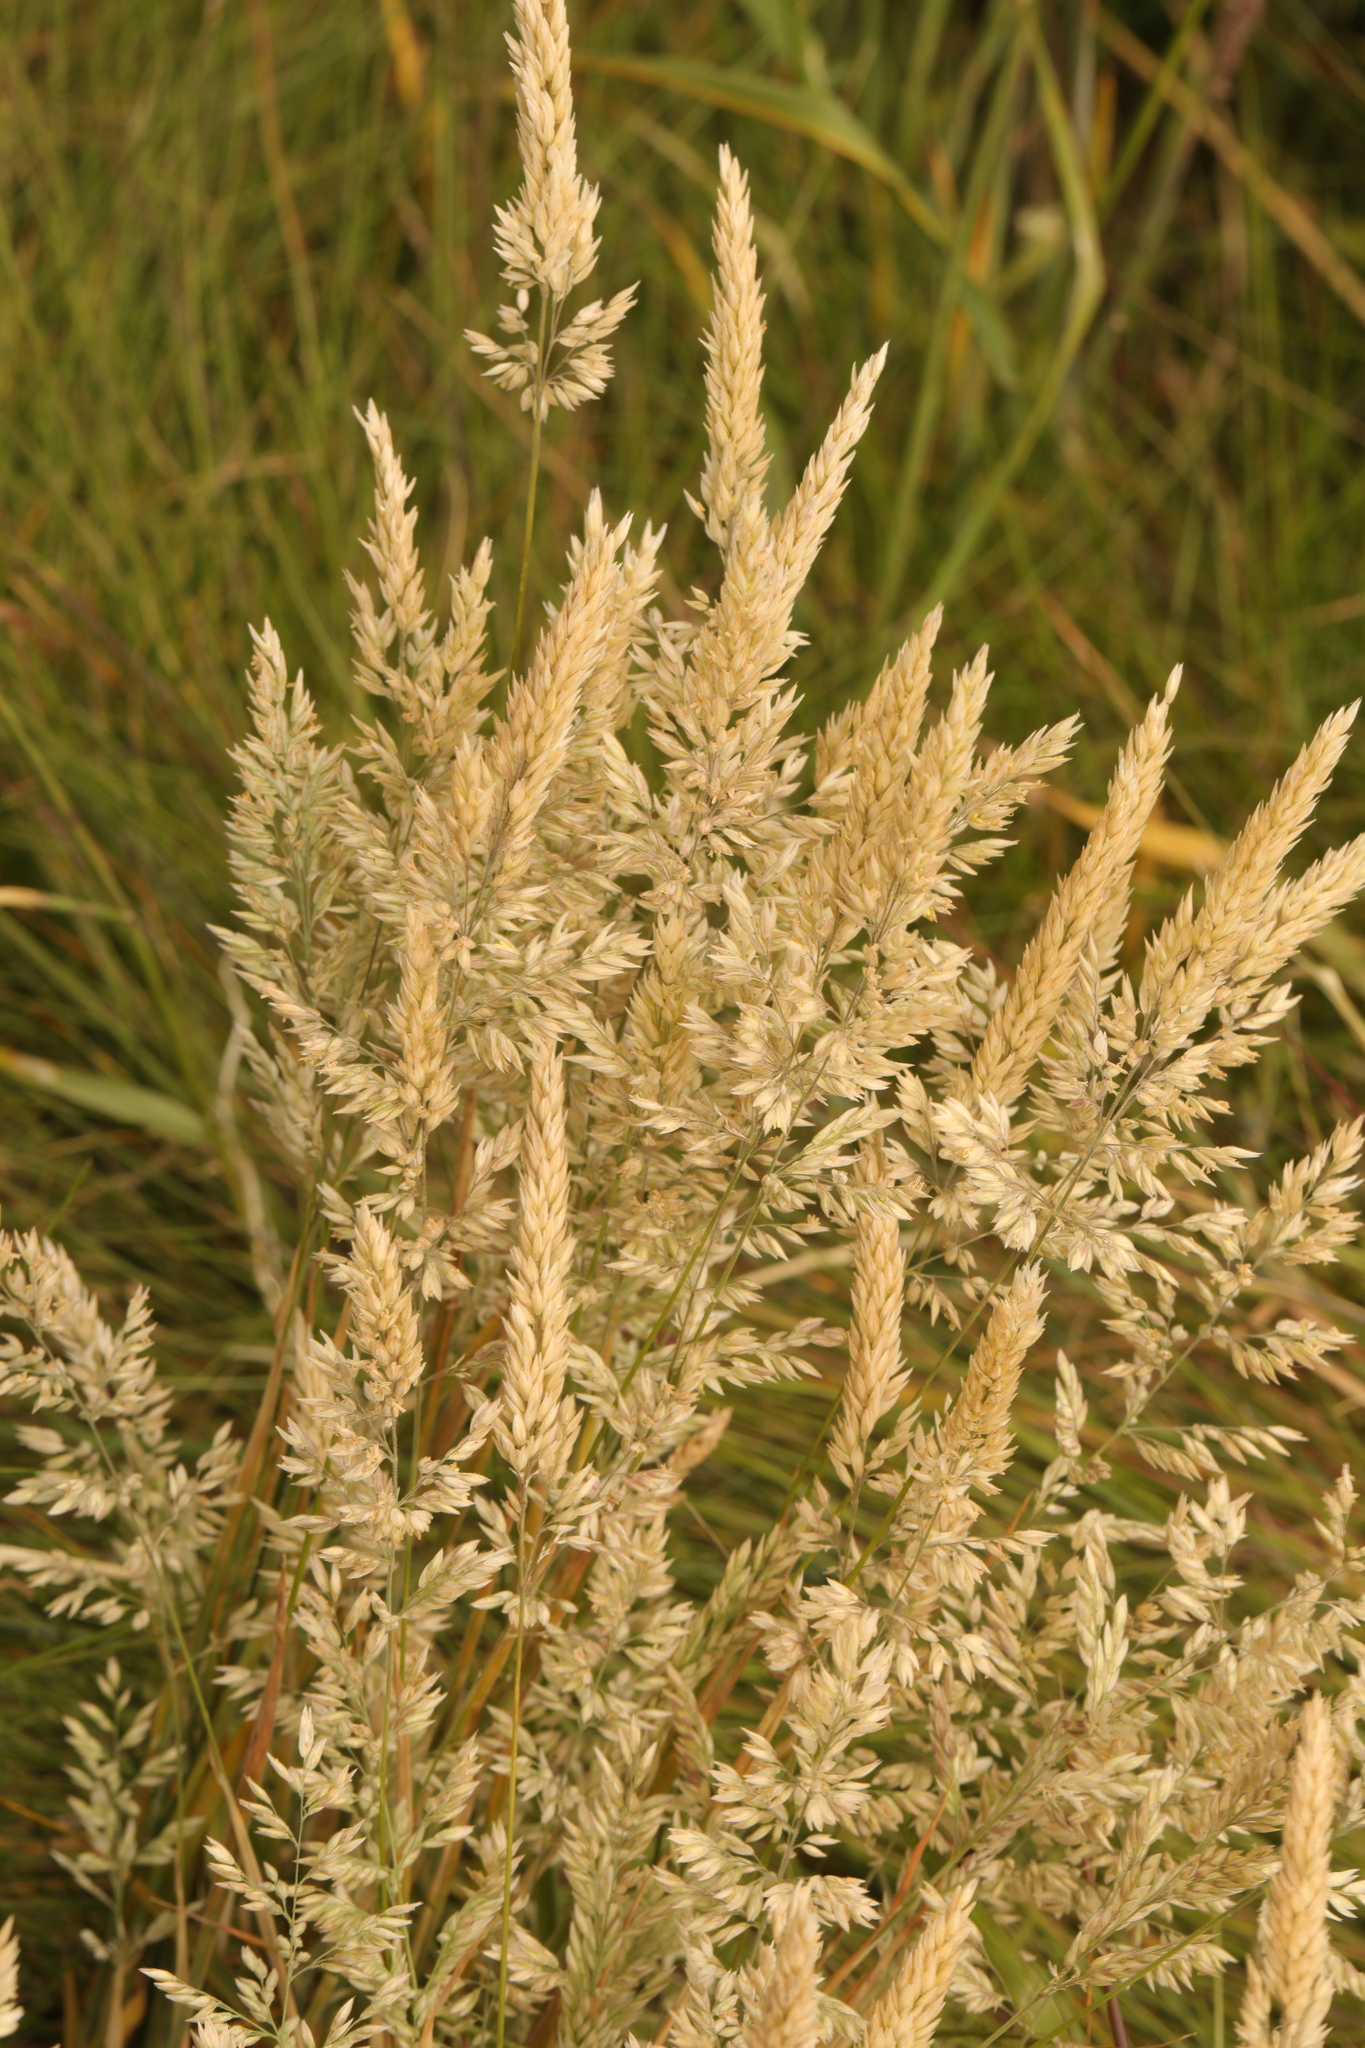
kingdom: Plantae
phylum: Tracheophyta
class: Liliopsida
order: Poales
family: Poaceae
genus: Holcus
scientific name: Holcus lanatus
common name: Yorkshire-fog
